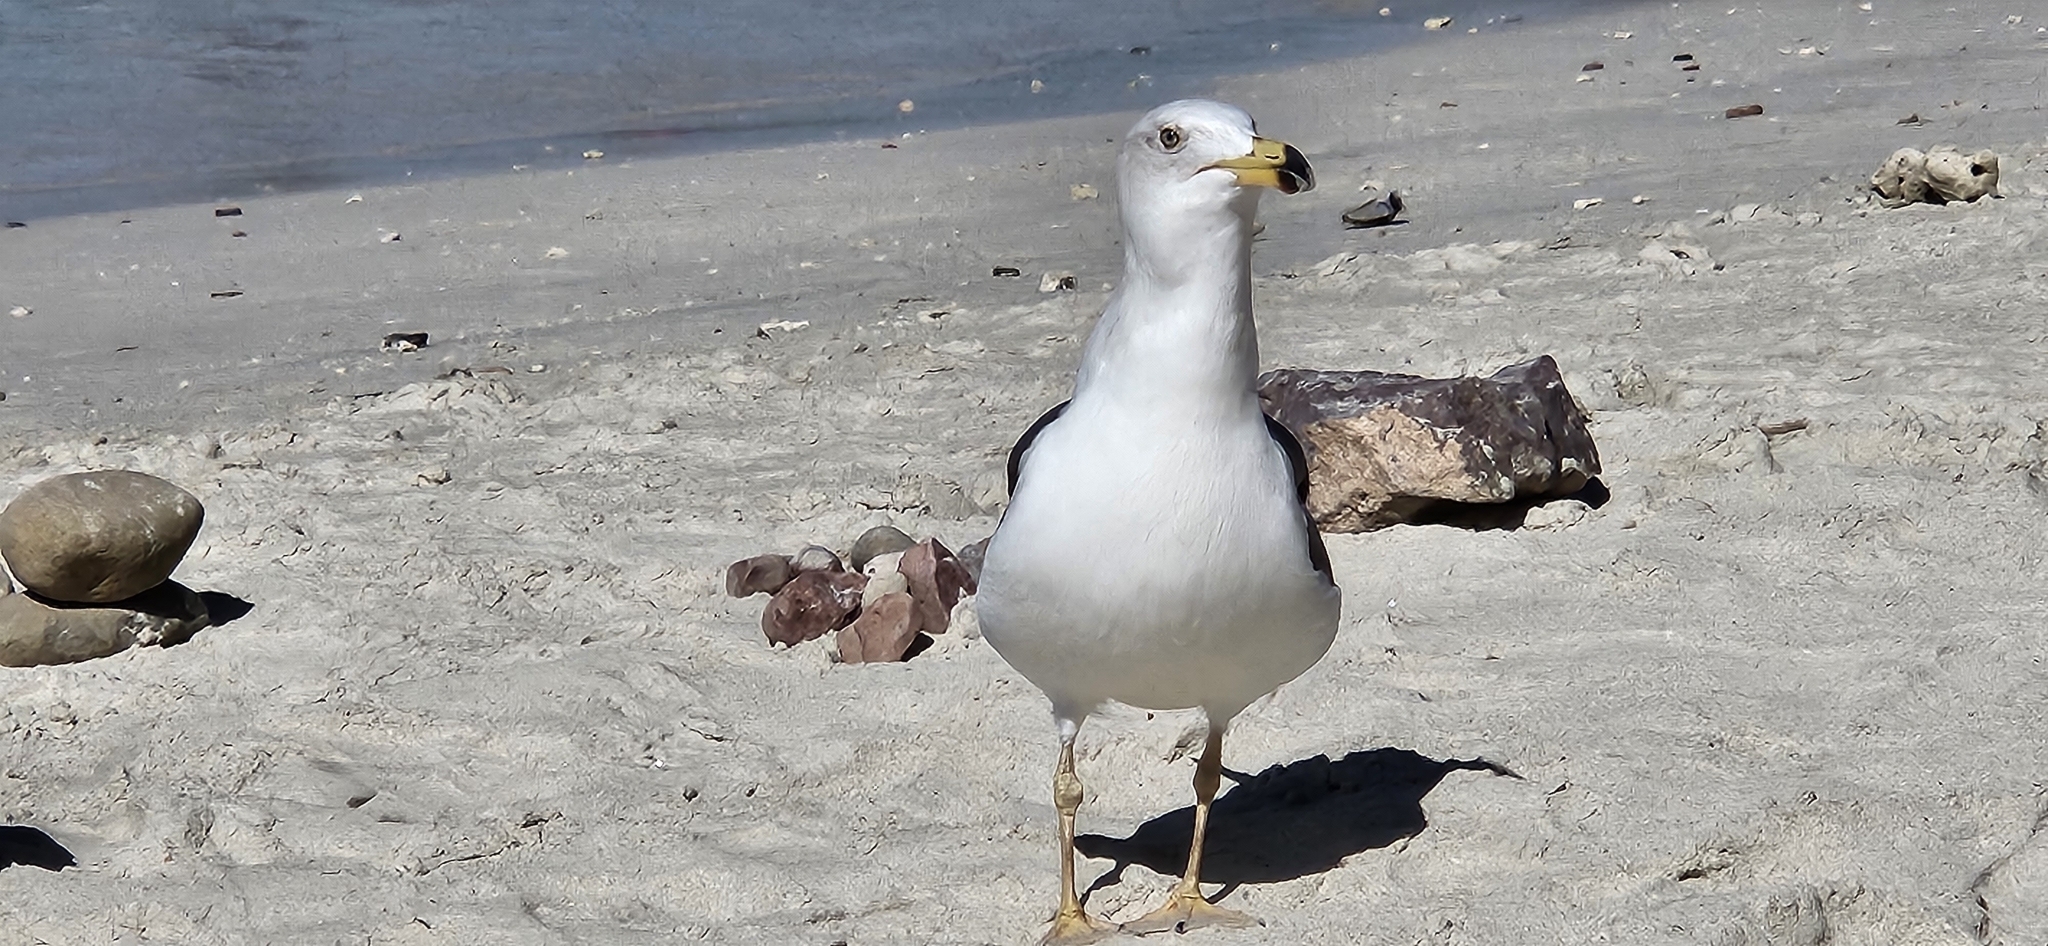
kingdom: Animalia
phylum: Chordata
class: Aves
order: Charadriiformes
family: Laridae
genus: Larus
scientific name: Larus livens
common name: Yellow-footed gull
